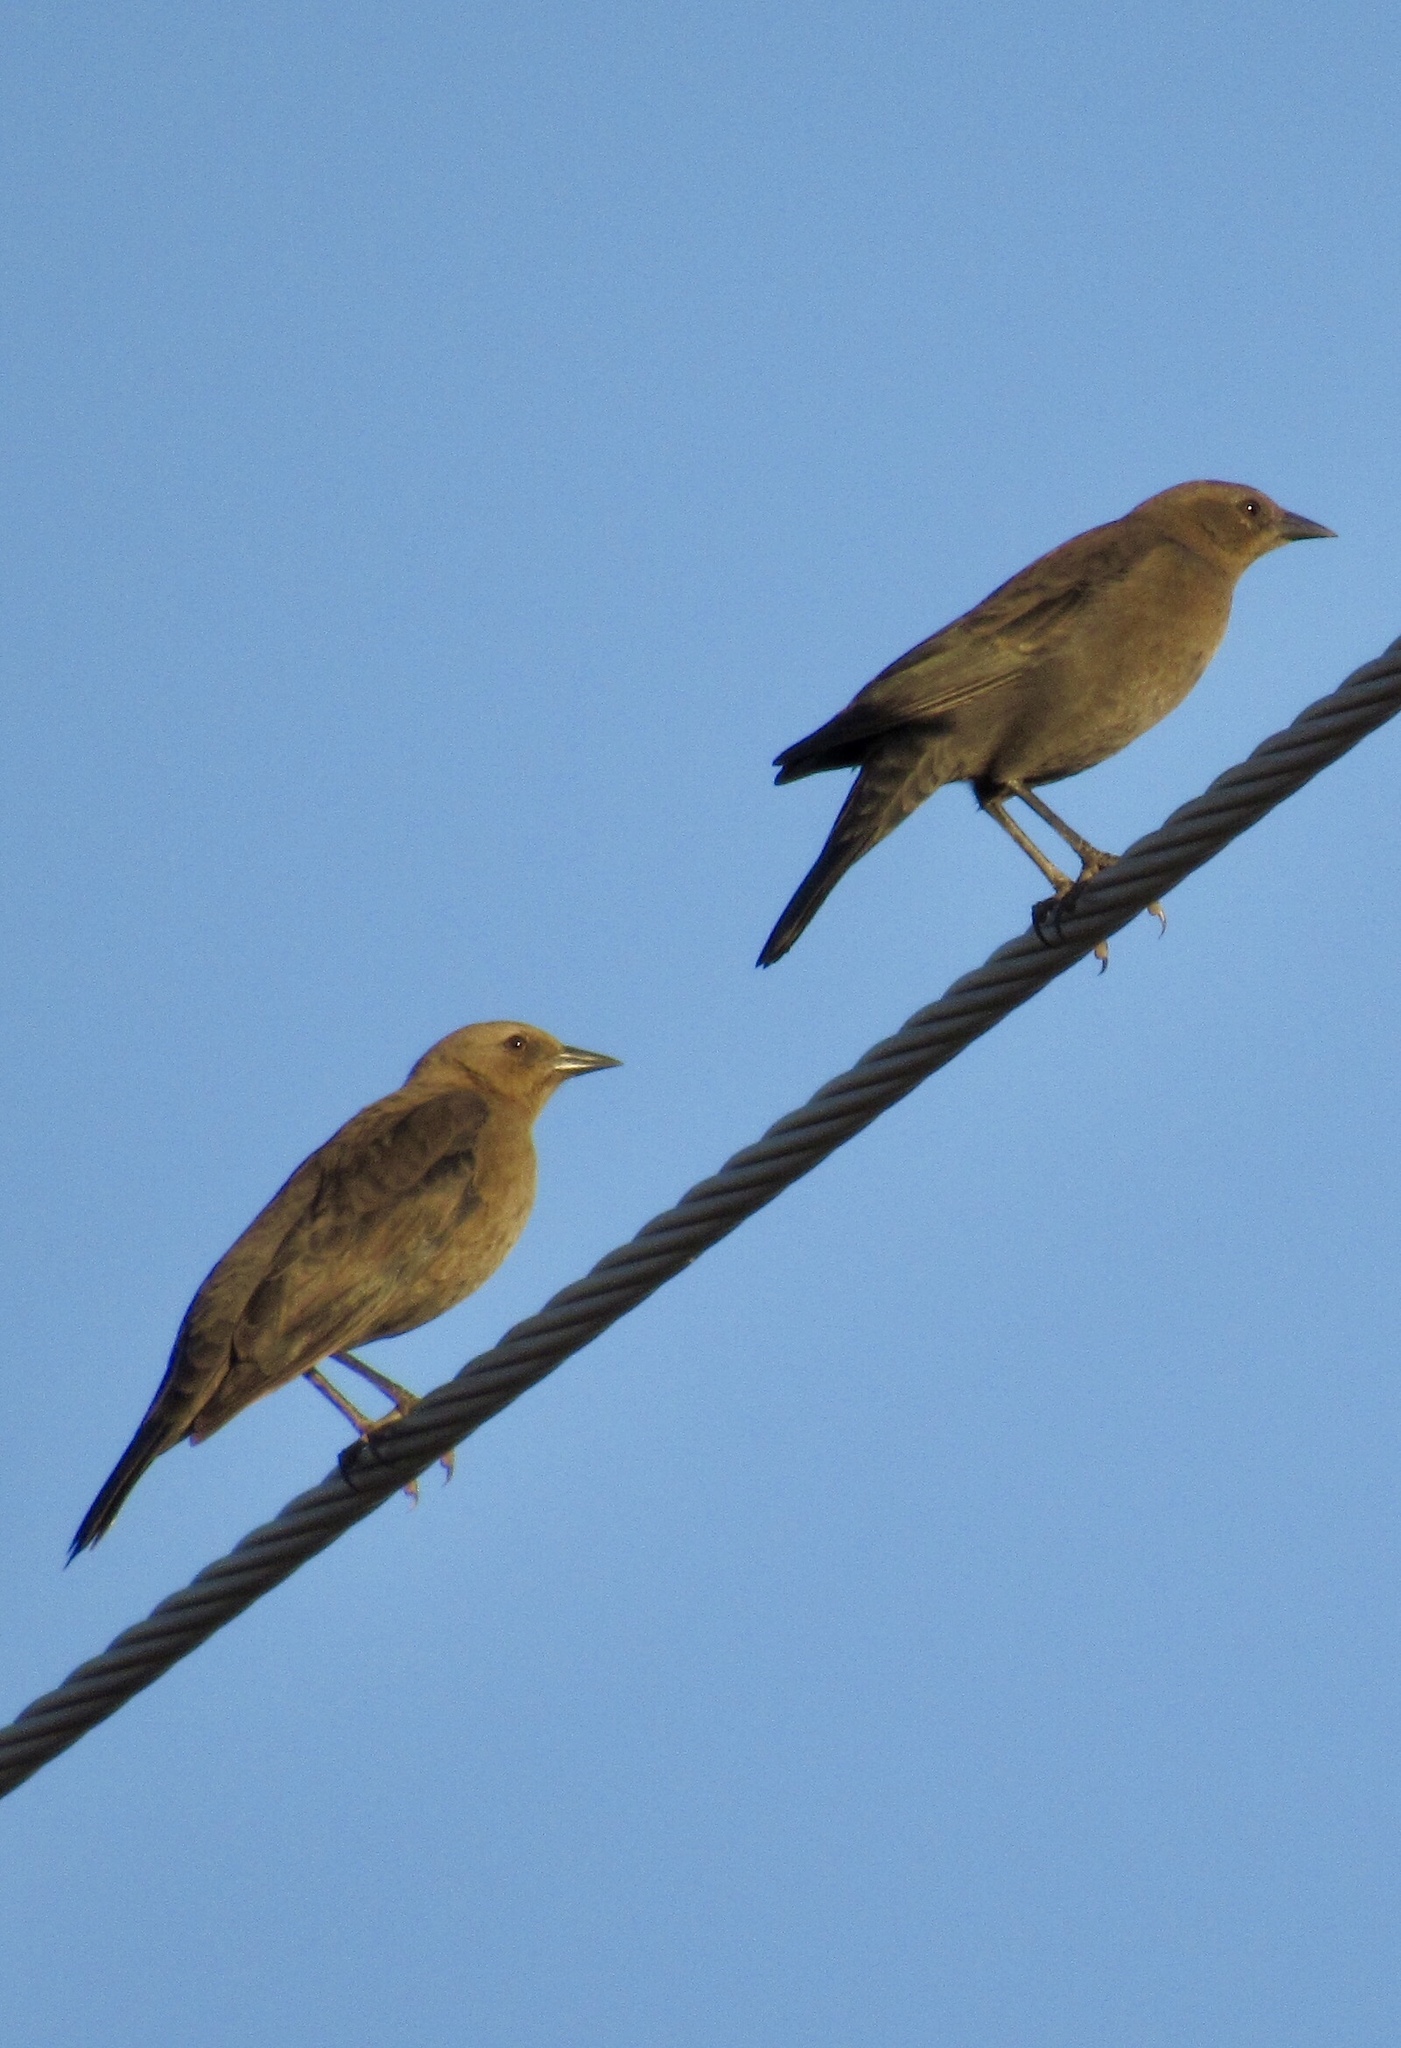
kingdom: Animalia
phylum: Chordata
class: Aves
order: Passeriformes
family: Icteridae
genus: Euphagus
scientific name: Euphagus cyanocephalus
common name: Brewer's blackbird
